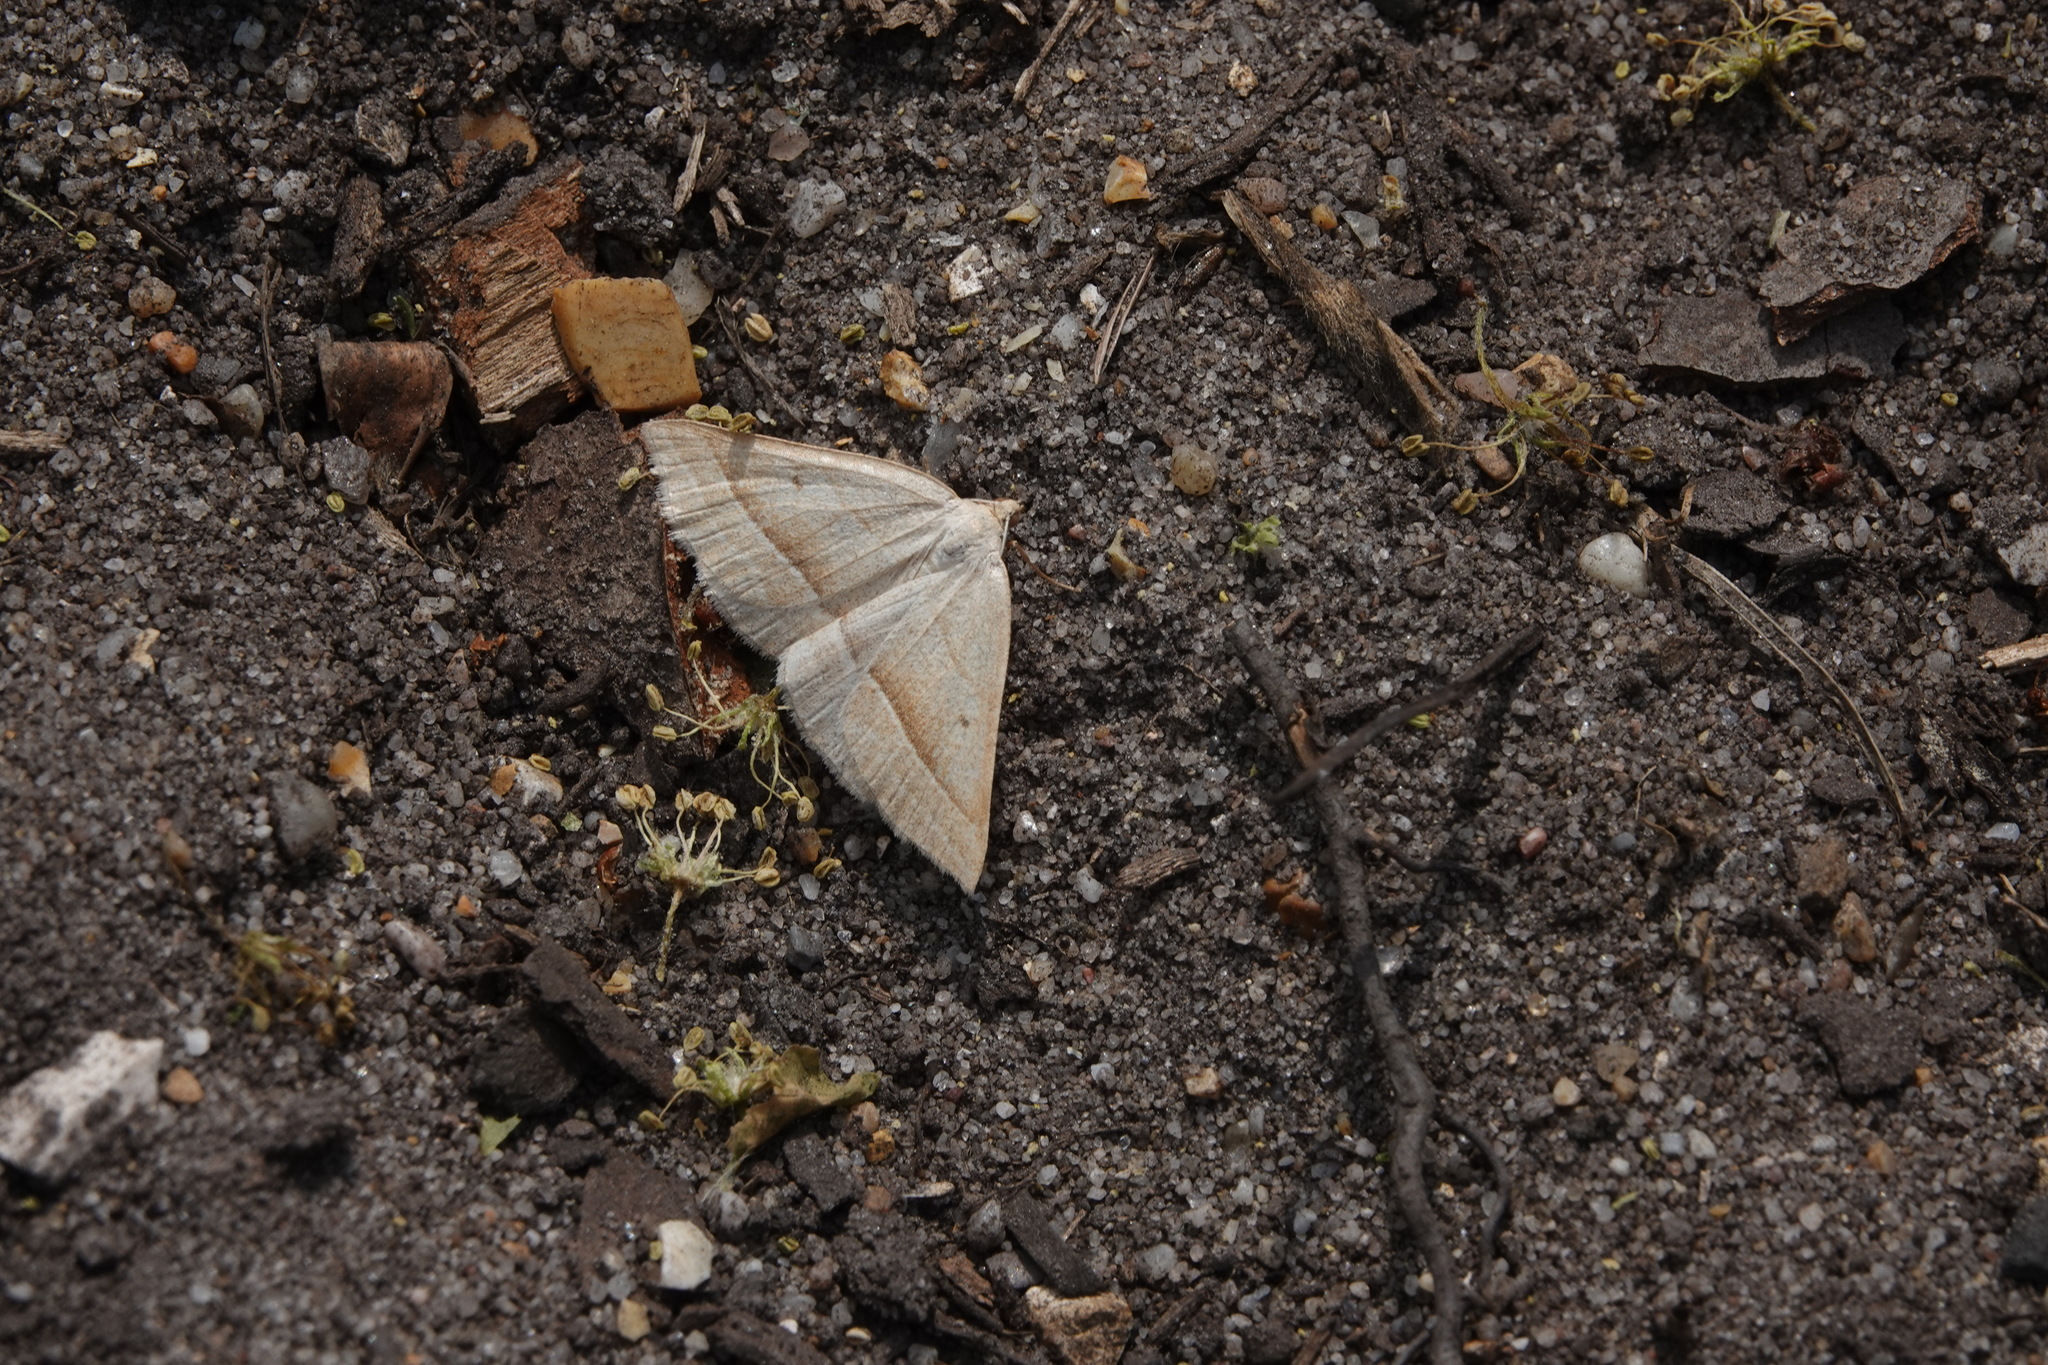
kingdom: Animalia
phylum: Arthropoda
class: Insecta
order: Lepidoptera
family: Pterophoridae
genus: Pterophorus
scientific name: Pterophorus Petrophora chlorosata
